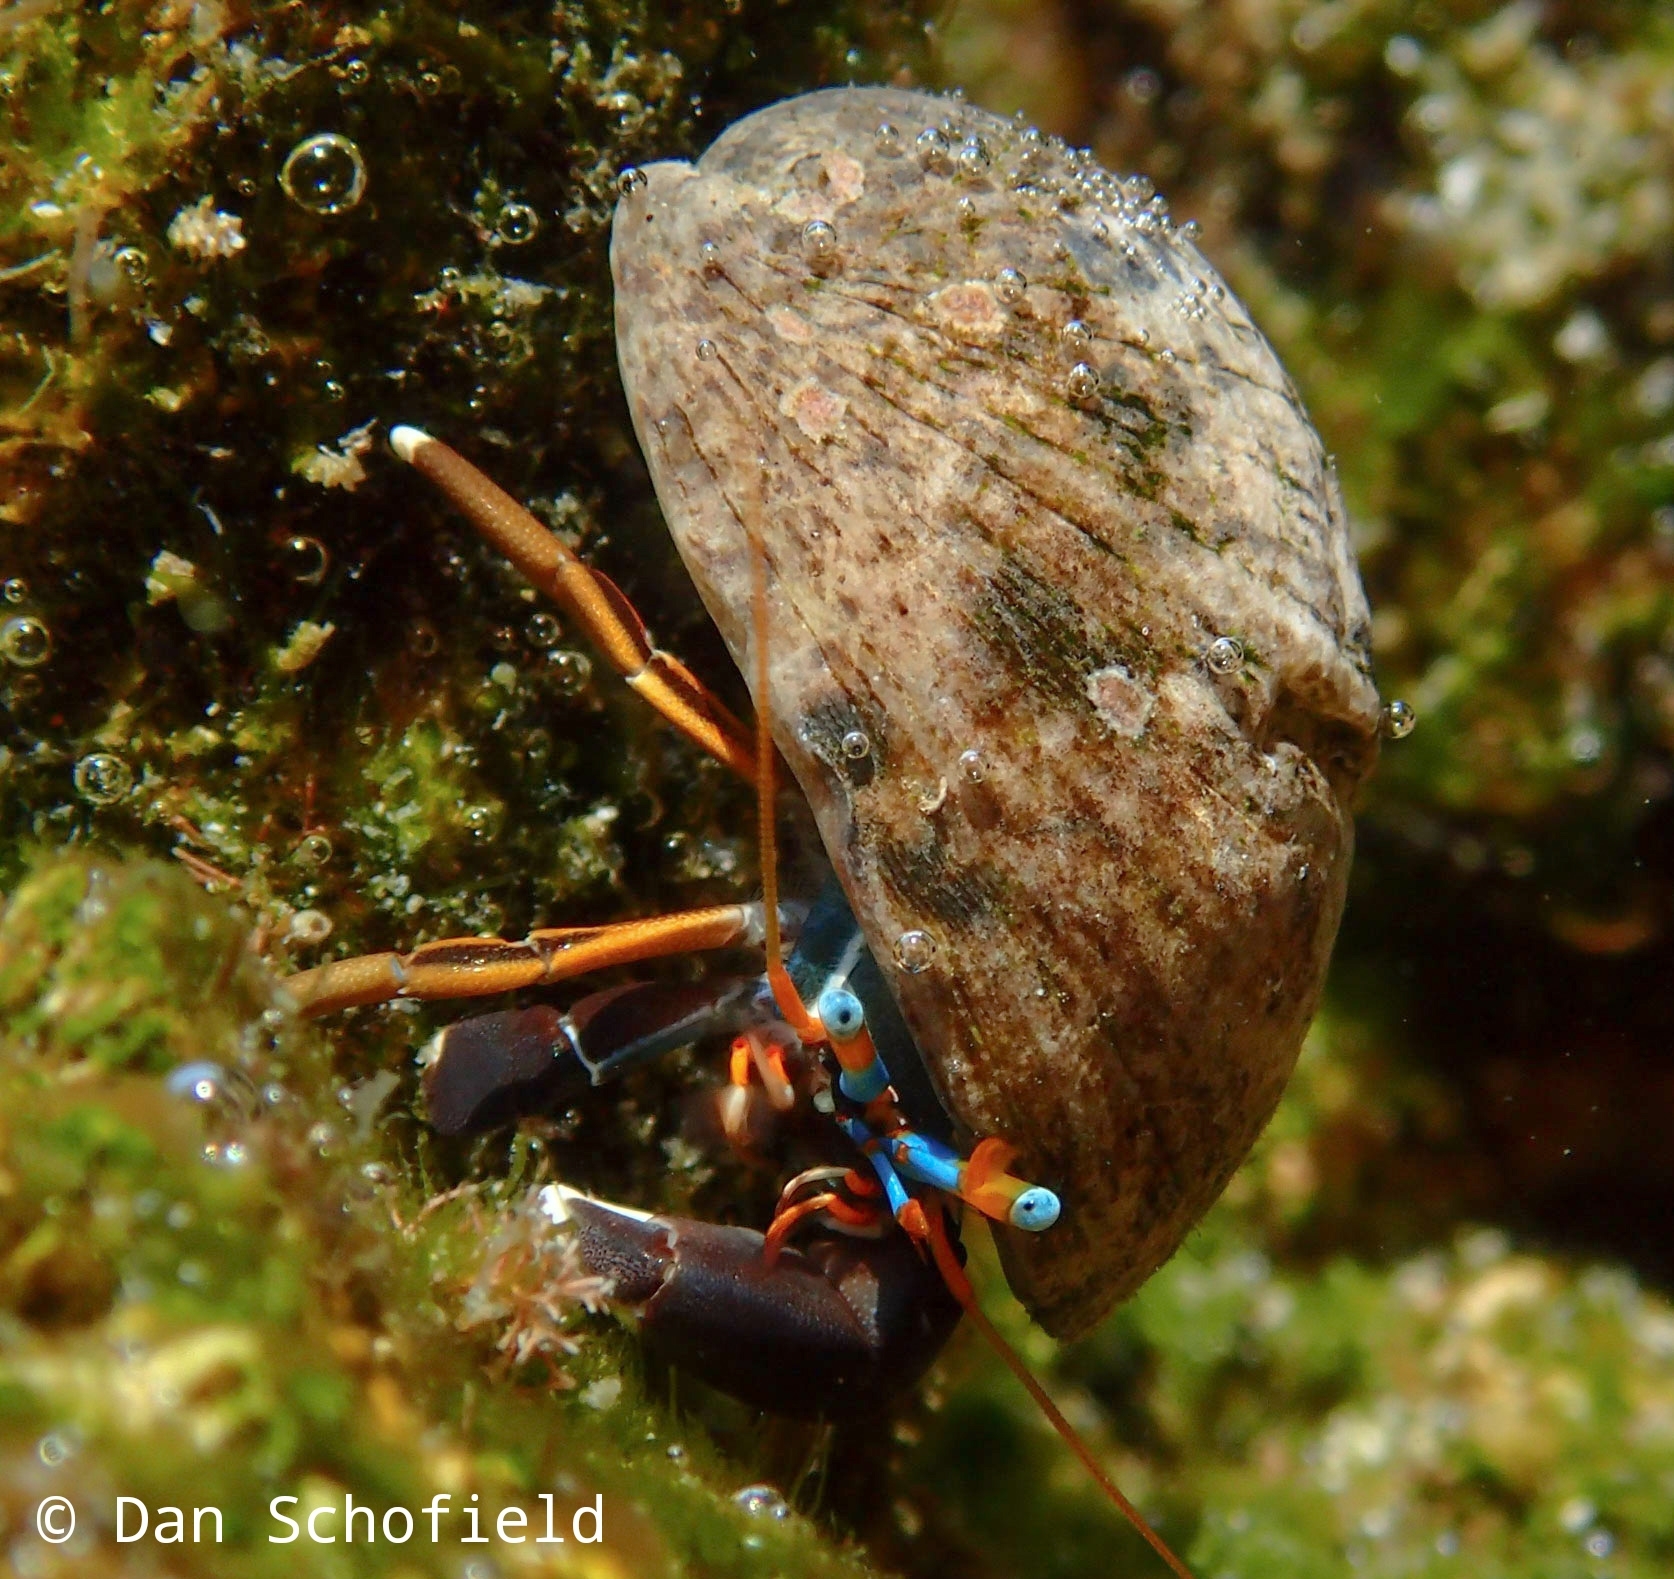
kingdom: Animalia
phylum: Arthropoda
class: Malacostraca
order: Decapoda
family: Diogenidae
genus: Calcinus
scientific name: Calcinus laevimanus
